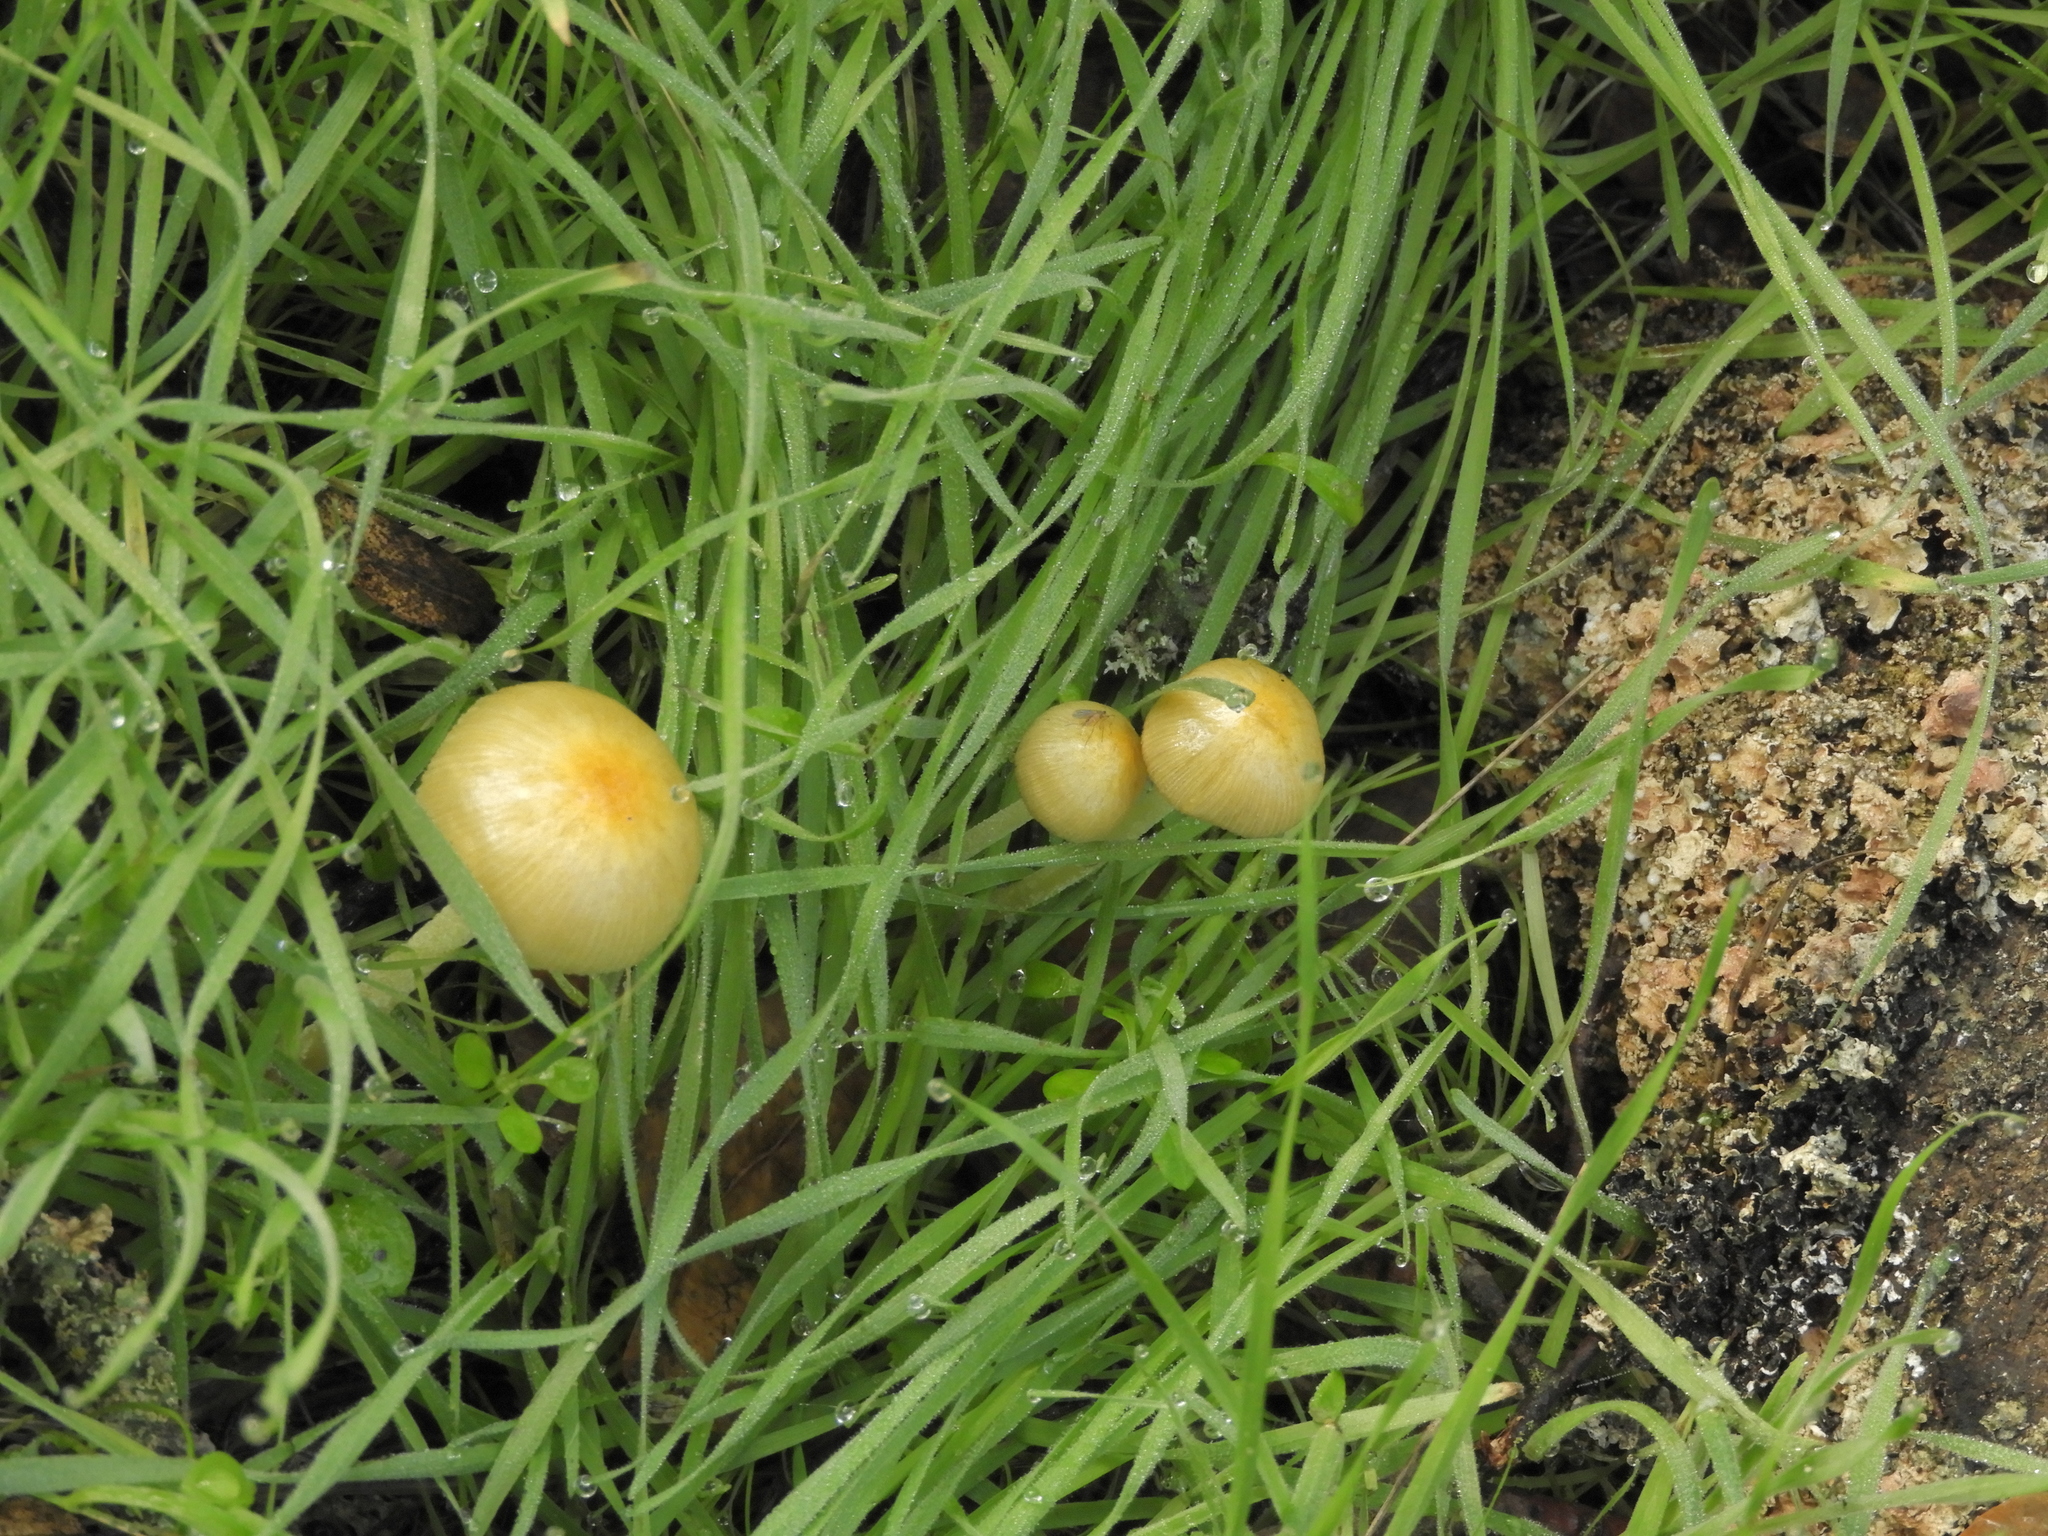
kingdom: Fungi
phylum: Basidiomycota
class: Agaricomycetes
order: Agaricales
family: Bolbitiaceae
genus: Bolbitius
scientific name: Bolbitius titubans
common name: Yellow fieldcap
